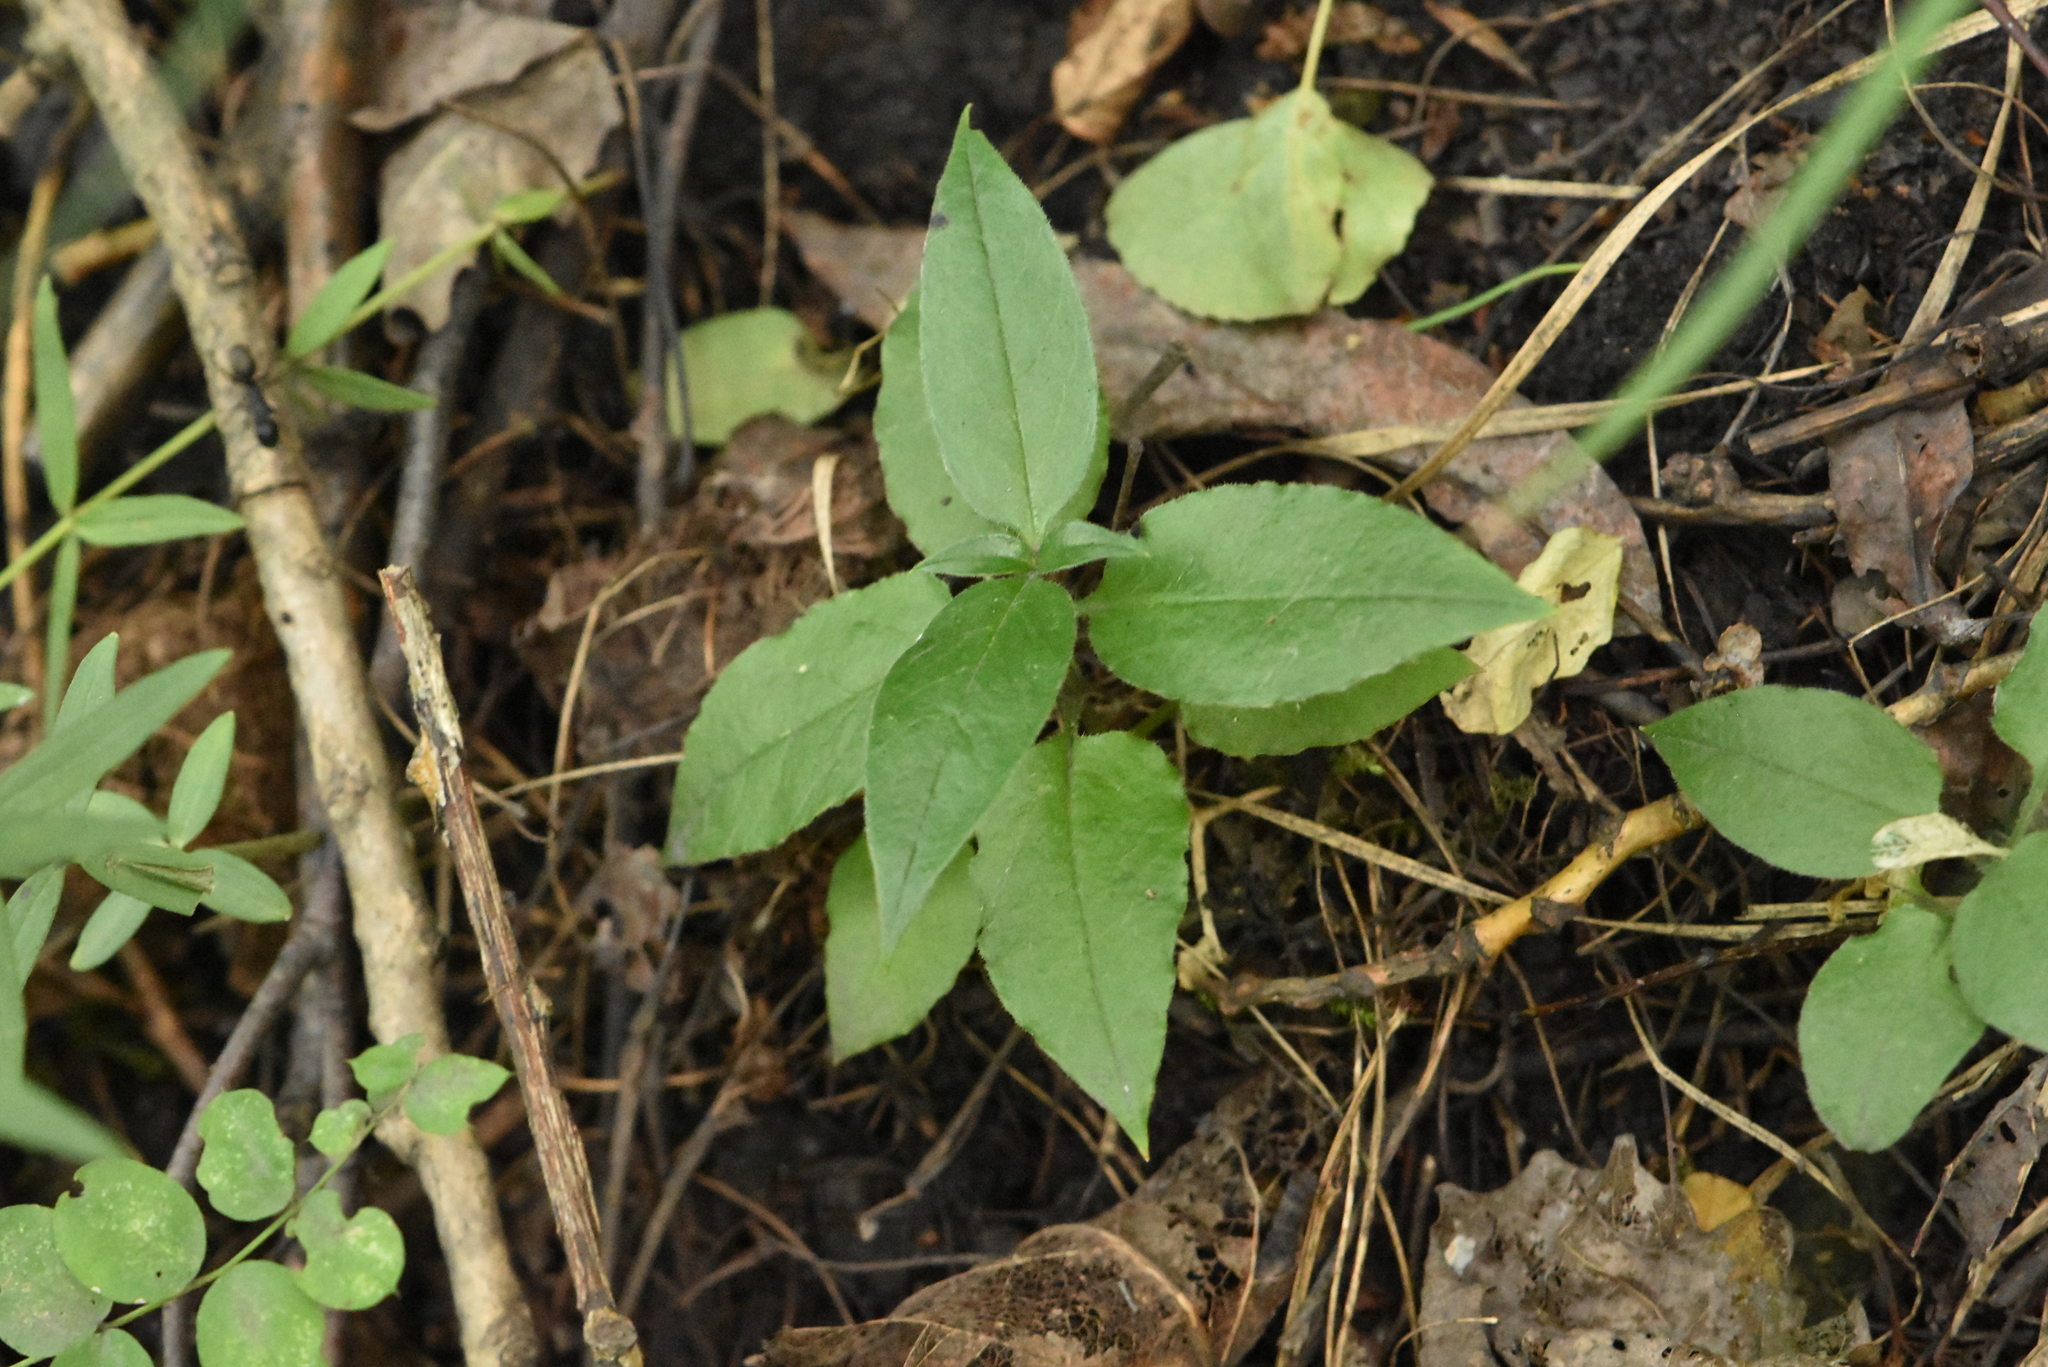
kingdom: Plantae
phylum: Tracheophyta
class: Magnoliopsida
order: Caryophyllales
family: Caryophyllaceae
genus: Stellaria
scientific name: Stellaria bungeana
